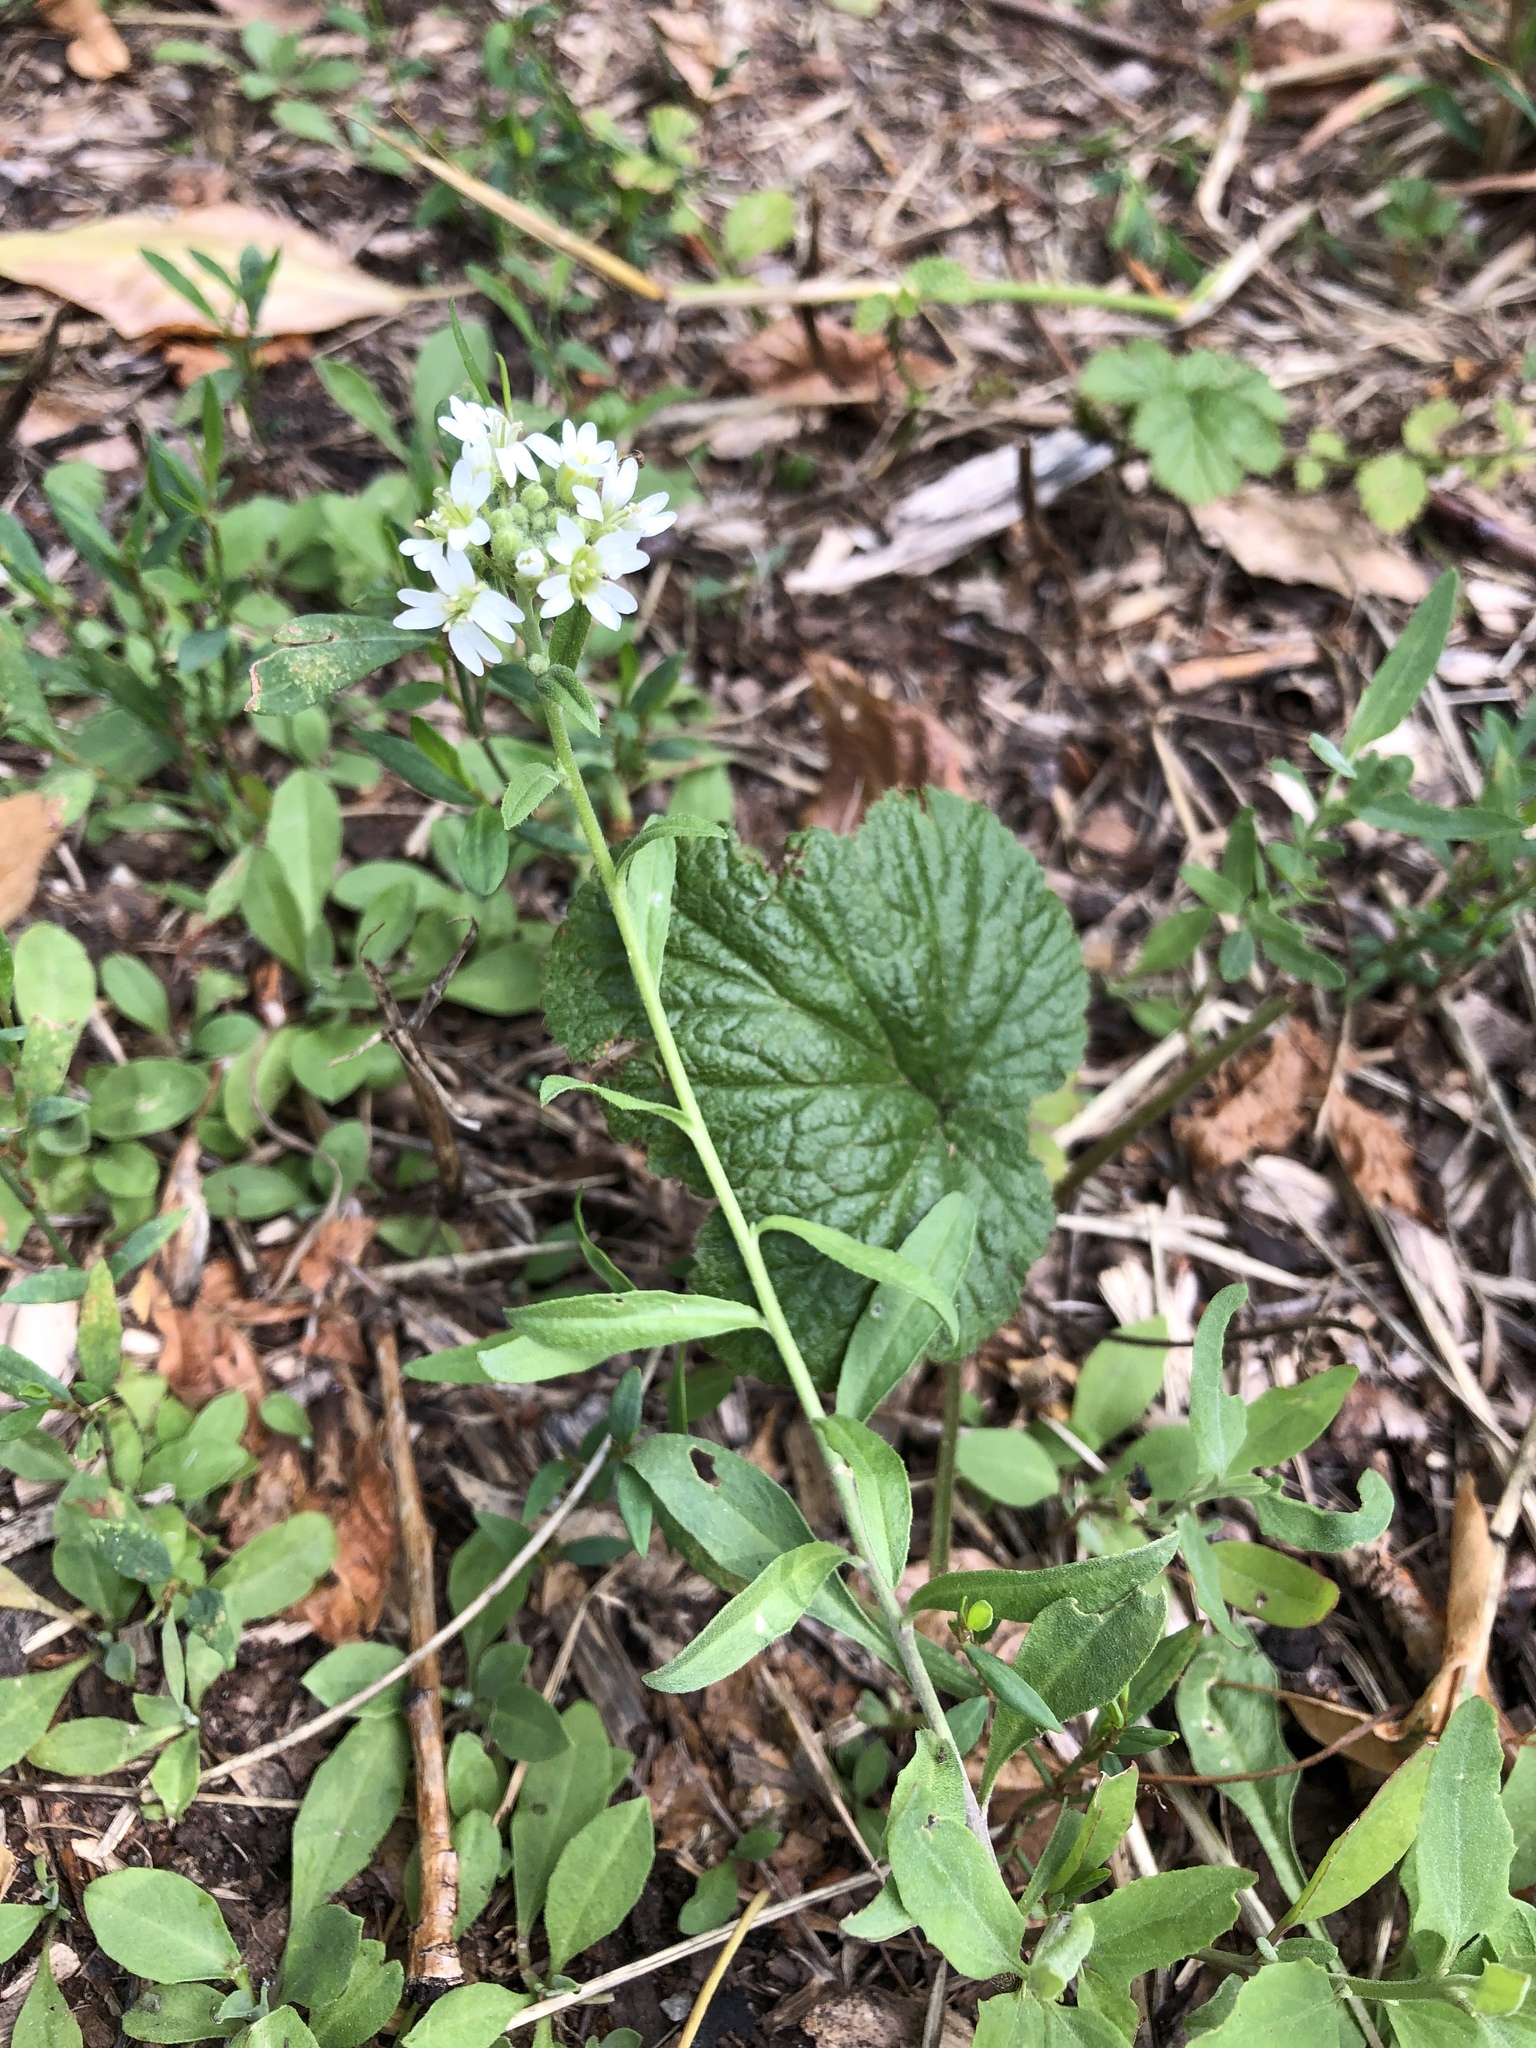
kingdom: Plantae
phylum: Tracheophyta
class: Magnoliopsida
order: Brassicales
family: Brassicaceae
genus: Berteroa
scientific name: Berteroa incana
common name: Hoary alison
